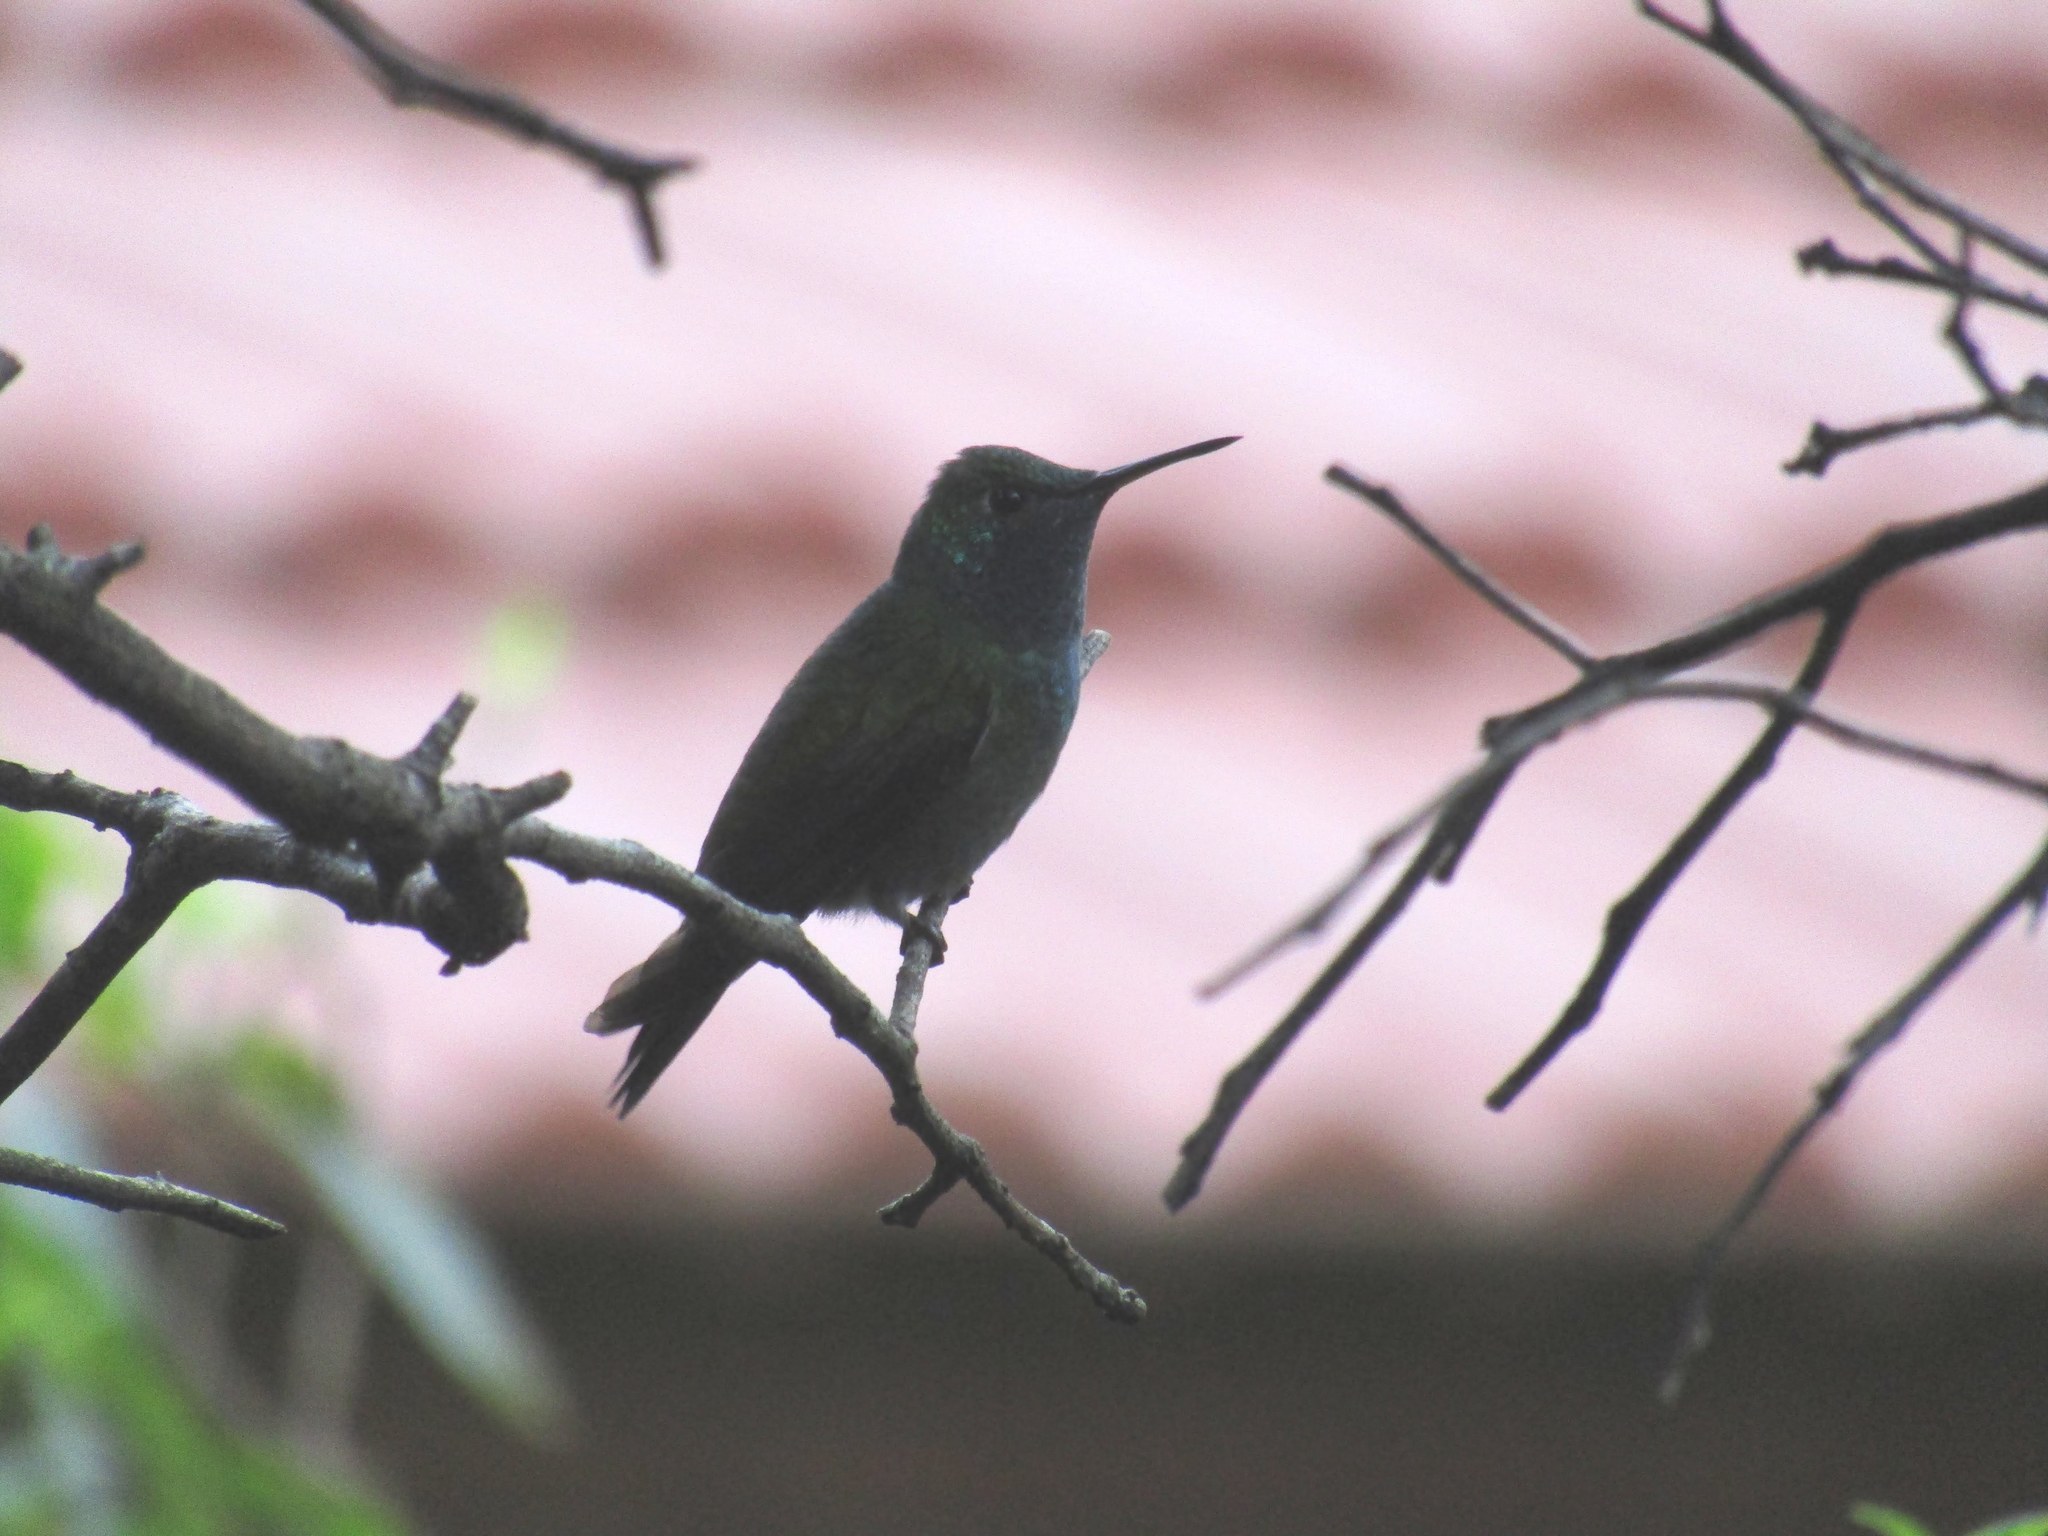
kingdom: Animalia
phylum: Chordata
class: Aves
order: Apodiformes
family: Trochilidae
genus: Chrysuronia
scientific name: Chrysuronia versicolor
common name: Versicolored emerald
